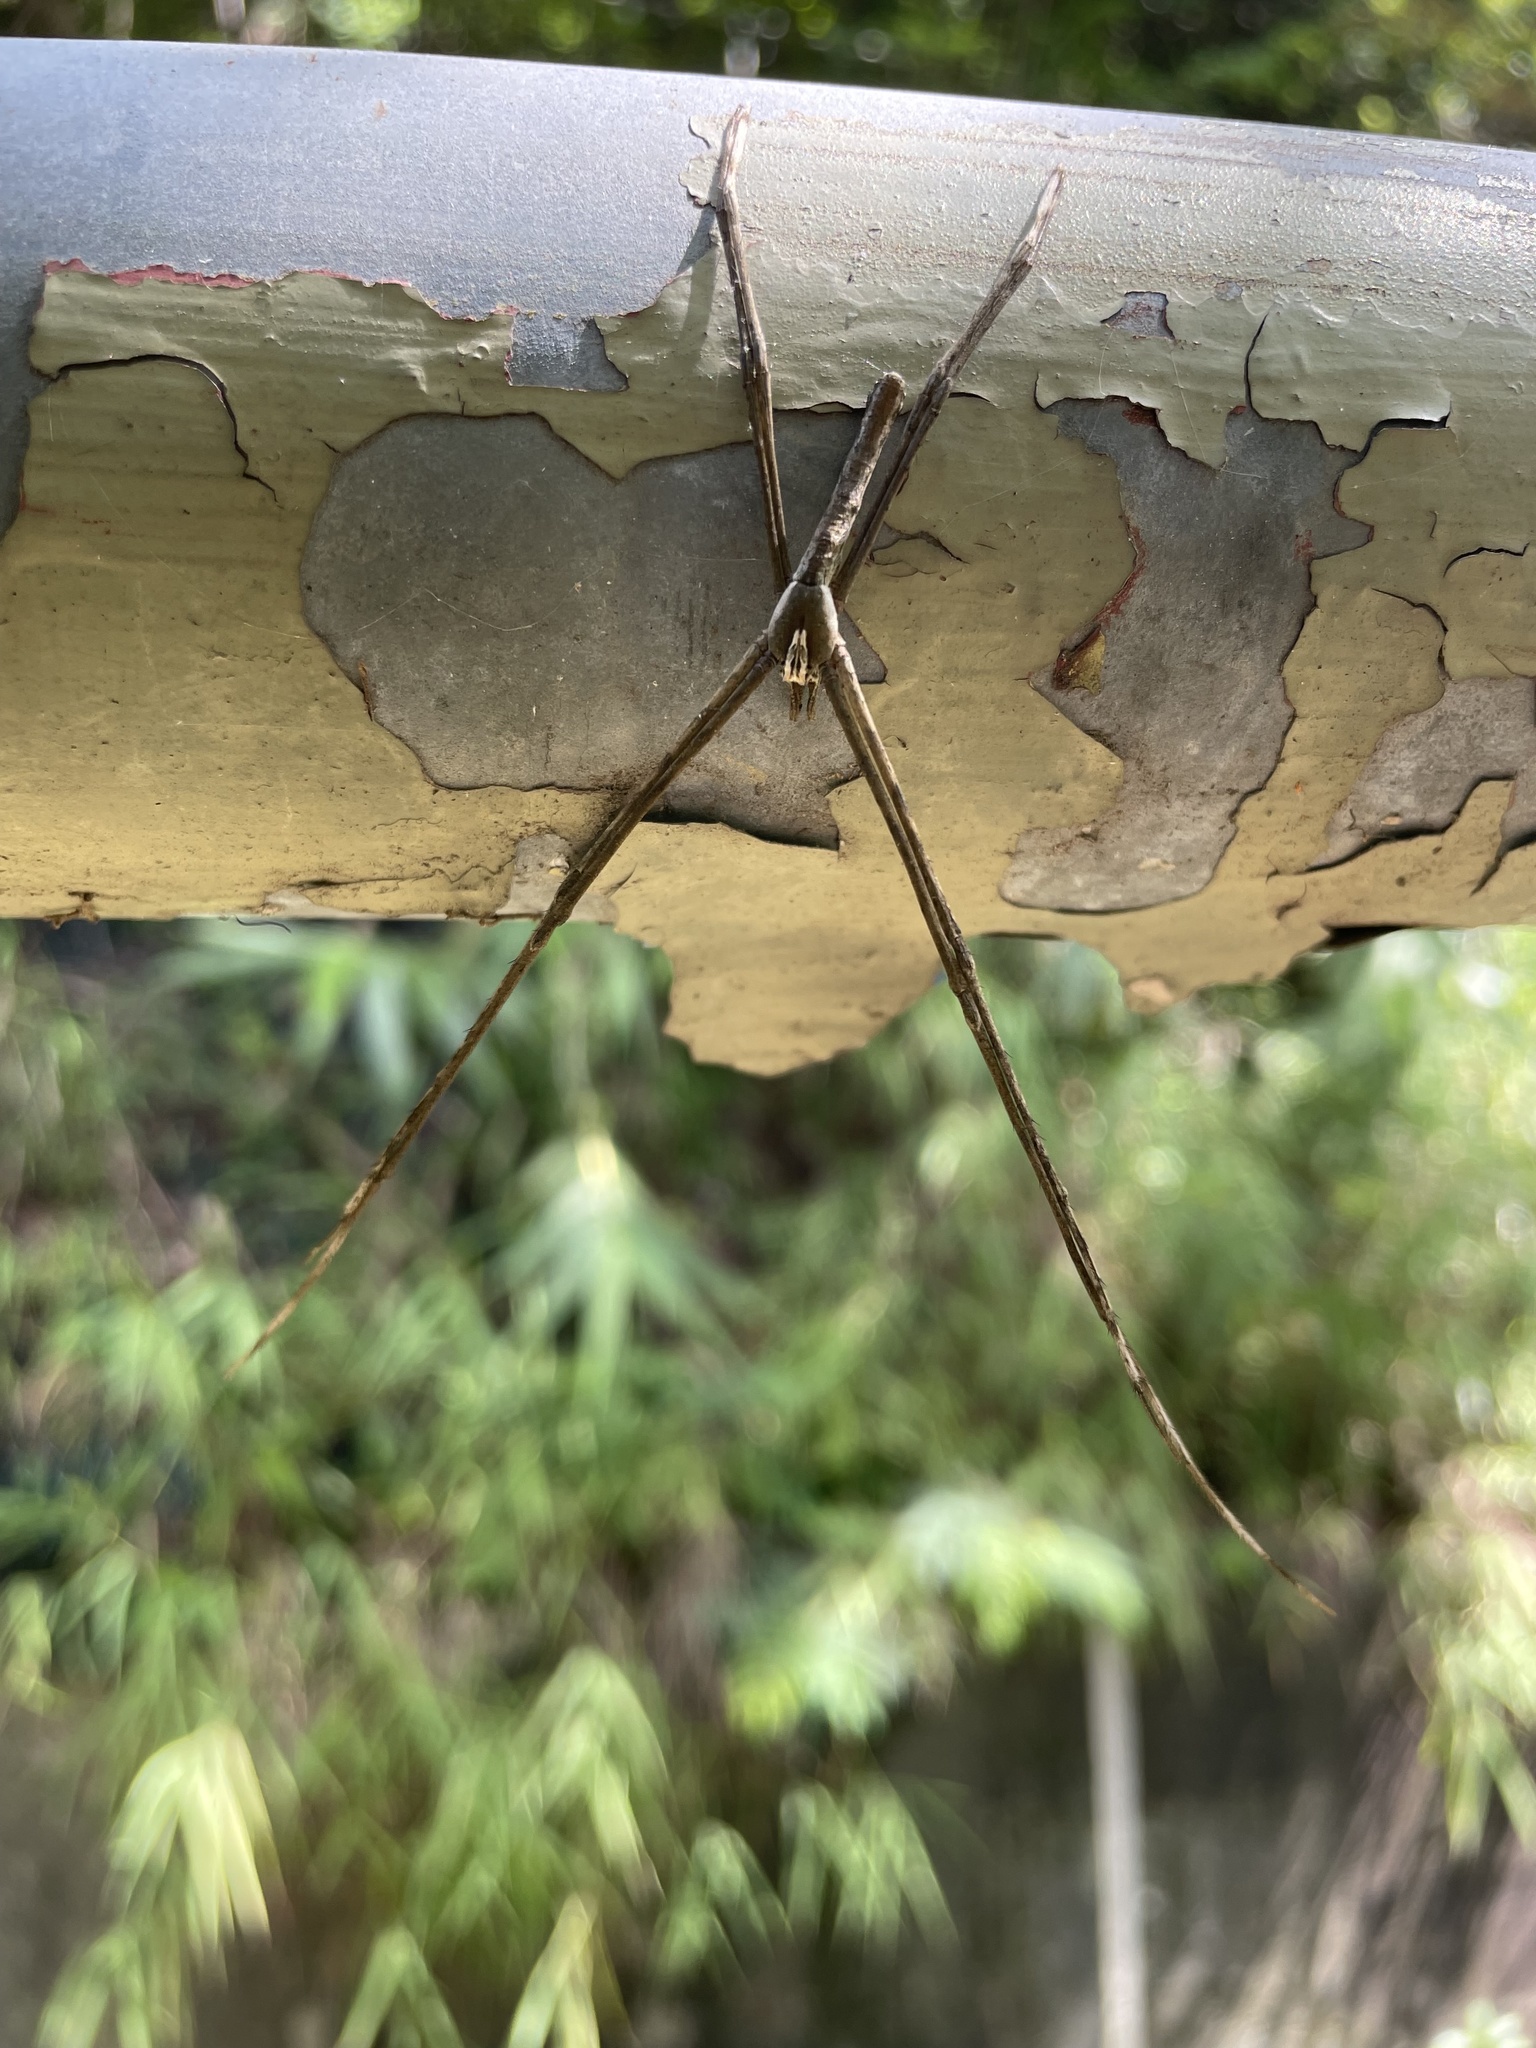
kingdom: Animalia
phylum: Arthropoda
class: Arachnida
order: Araneae
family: Deinopidae
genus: Asianopis
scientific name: Asianopis zhuanghaoyuni
